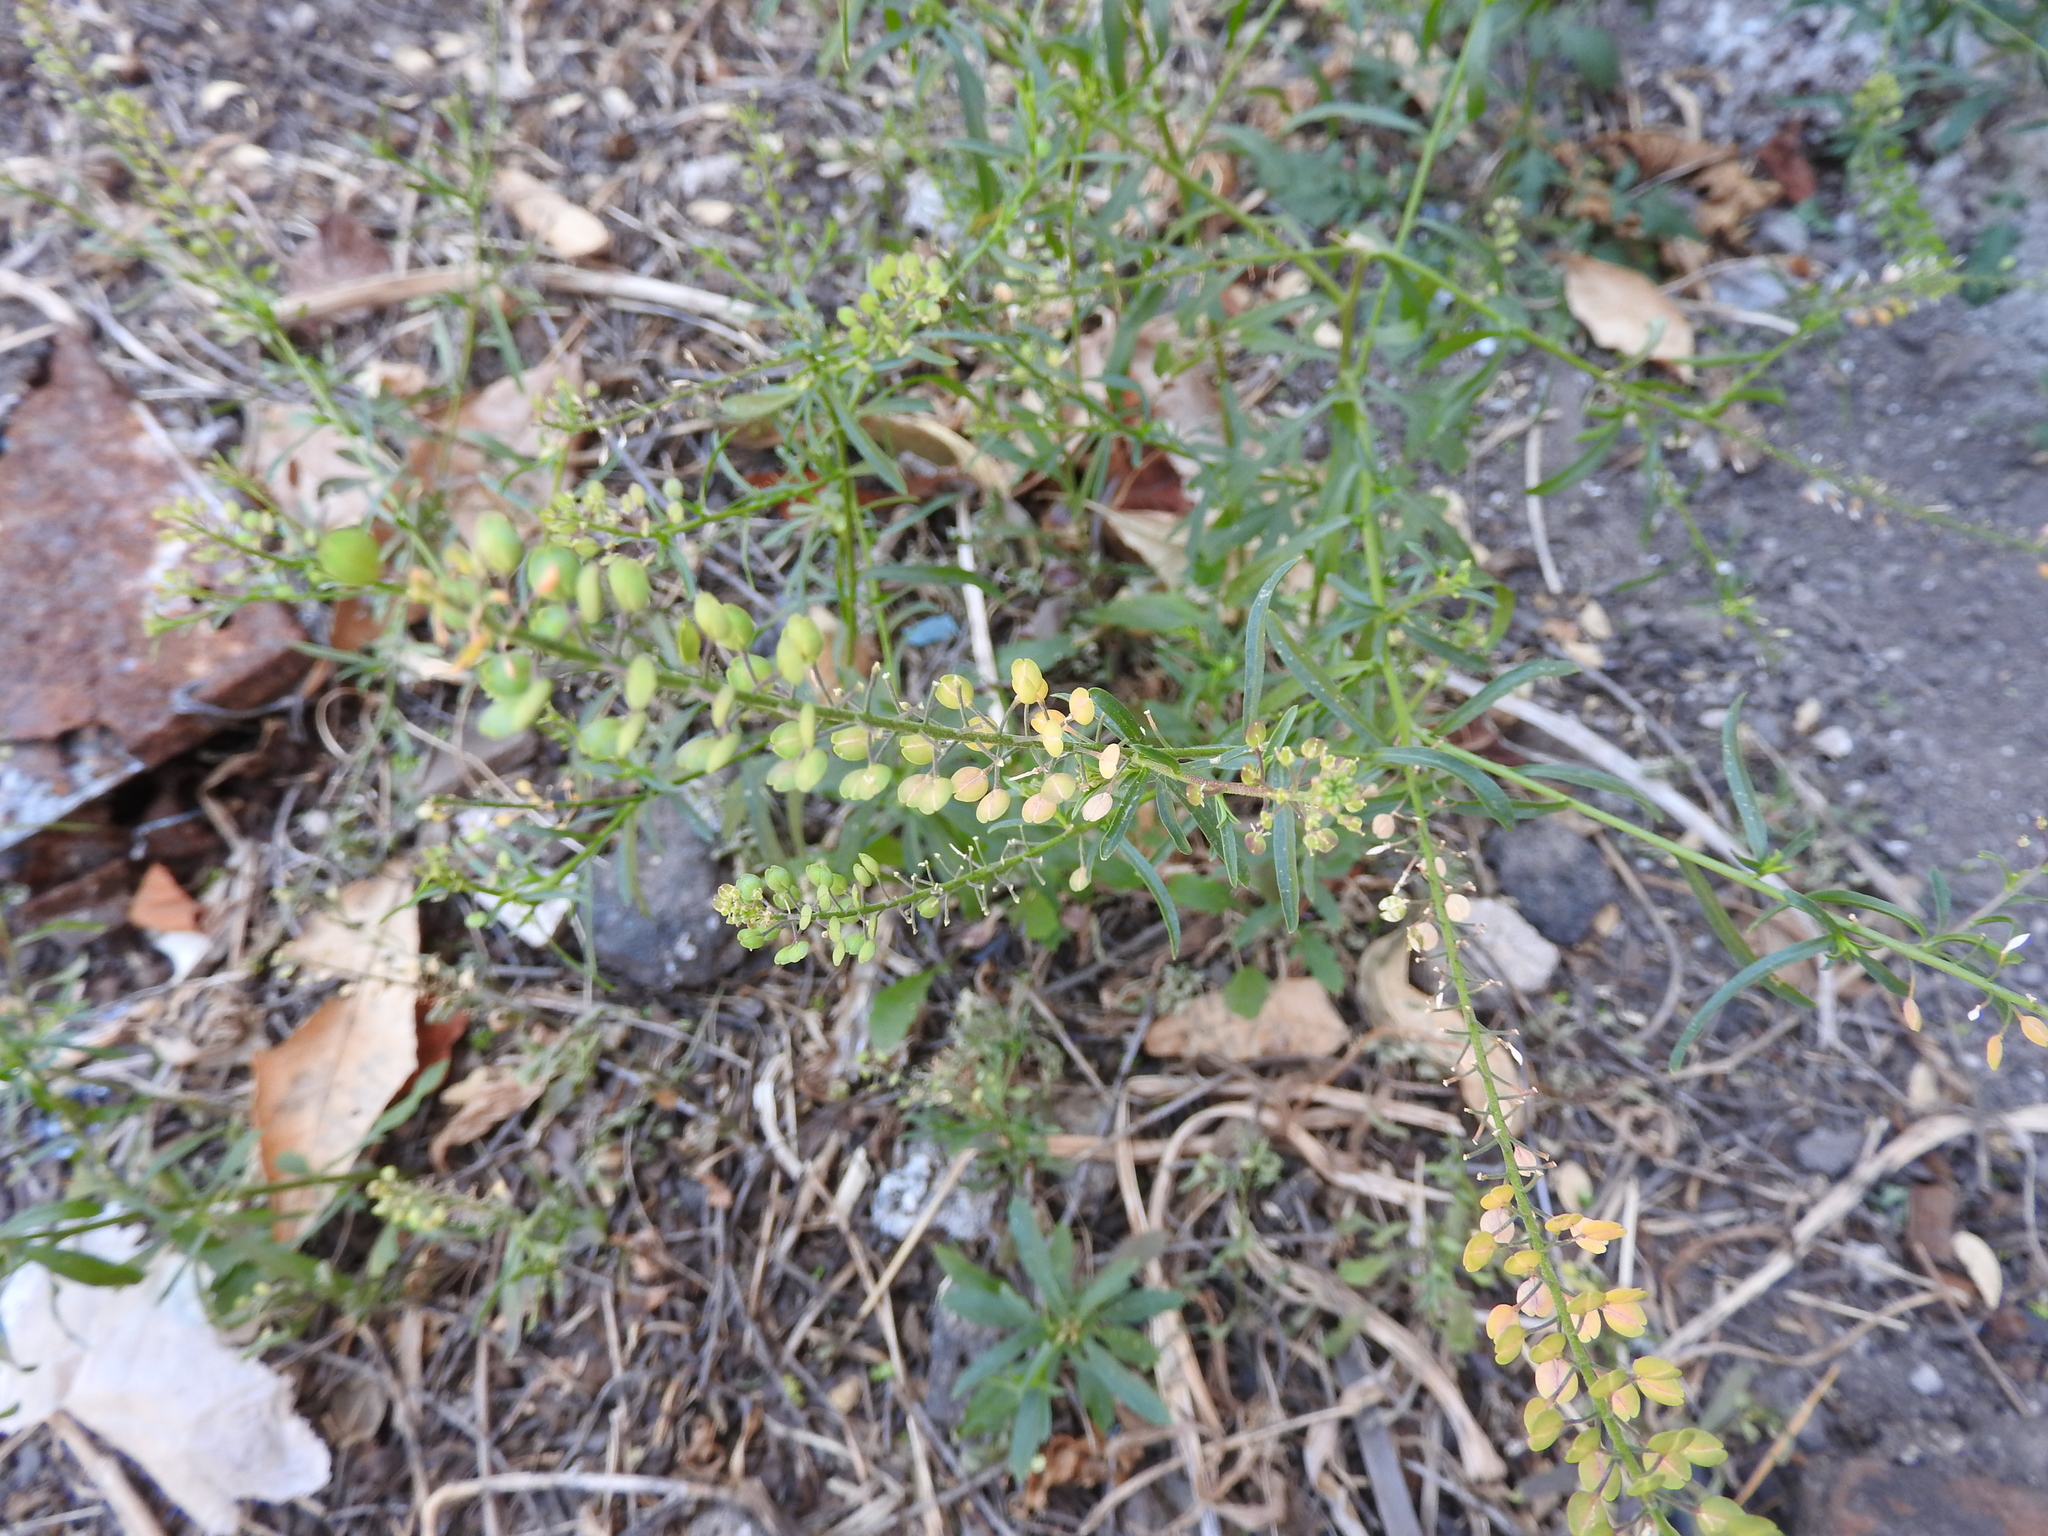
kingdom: Plantae
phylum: Tracheophyta
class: Magnoliopsida
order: Brassicales
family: Brassicaceae
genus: Lepidium
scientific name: Lepidium virginicum
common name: Least pepperwort
